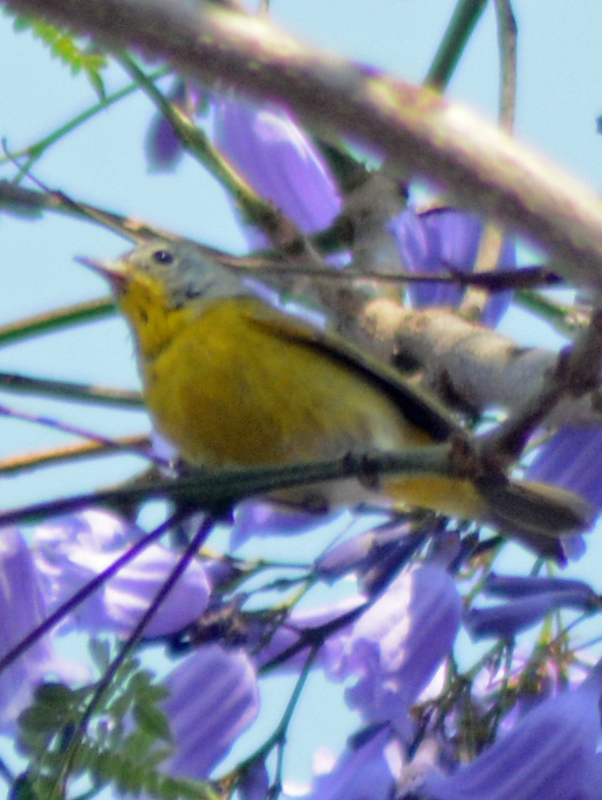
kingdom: Animalia
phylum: Chordata
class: Aves
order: Passeriformes
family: Parulidae
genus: Leiothlypis
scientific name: Leiothlypis ruficapilla
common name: Nashville warbler
